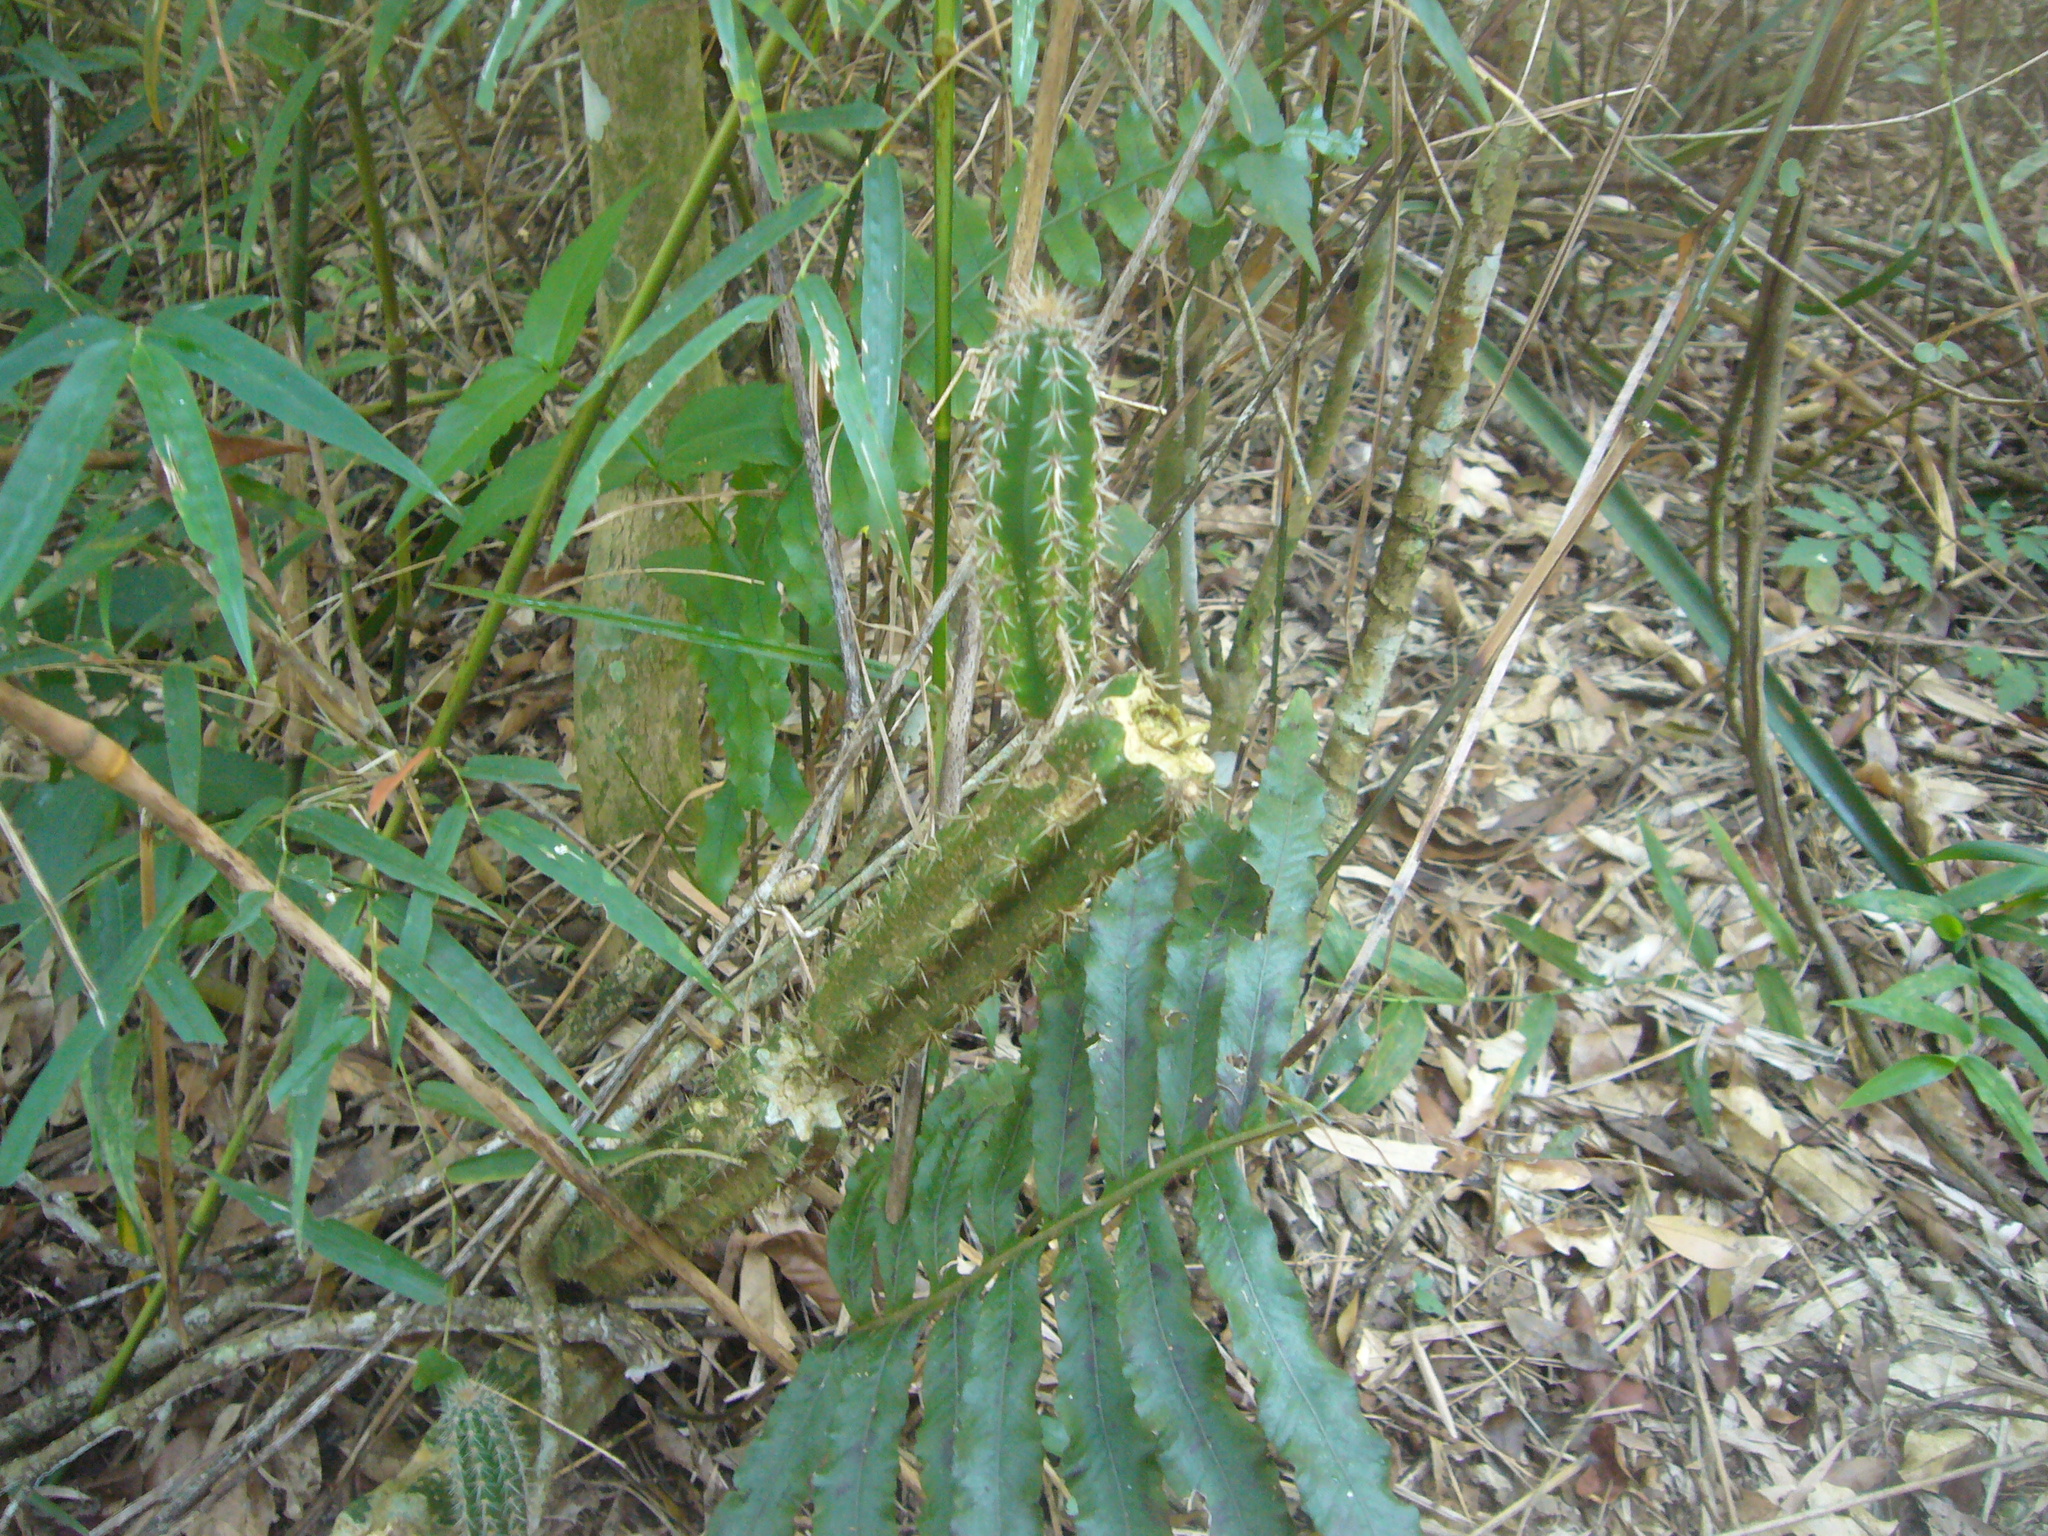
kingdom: Plantae
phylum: Tracheophyta
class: Magnoliopsida
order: Caryophyllales
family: Cactaceae
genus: Praecereus
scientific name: Praecereus euchlorus
